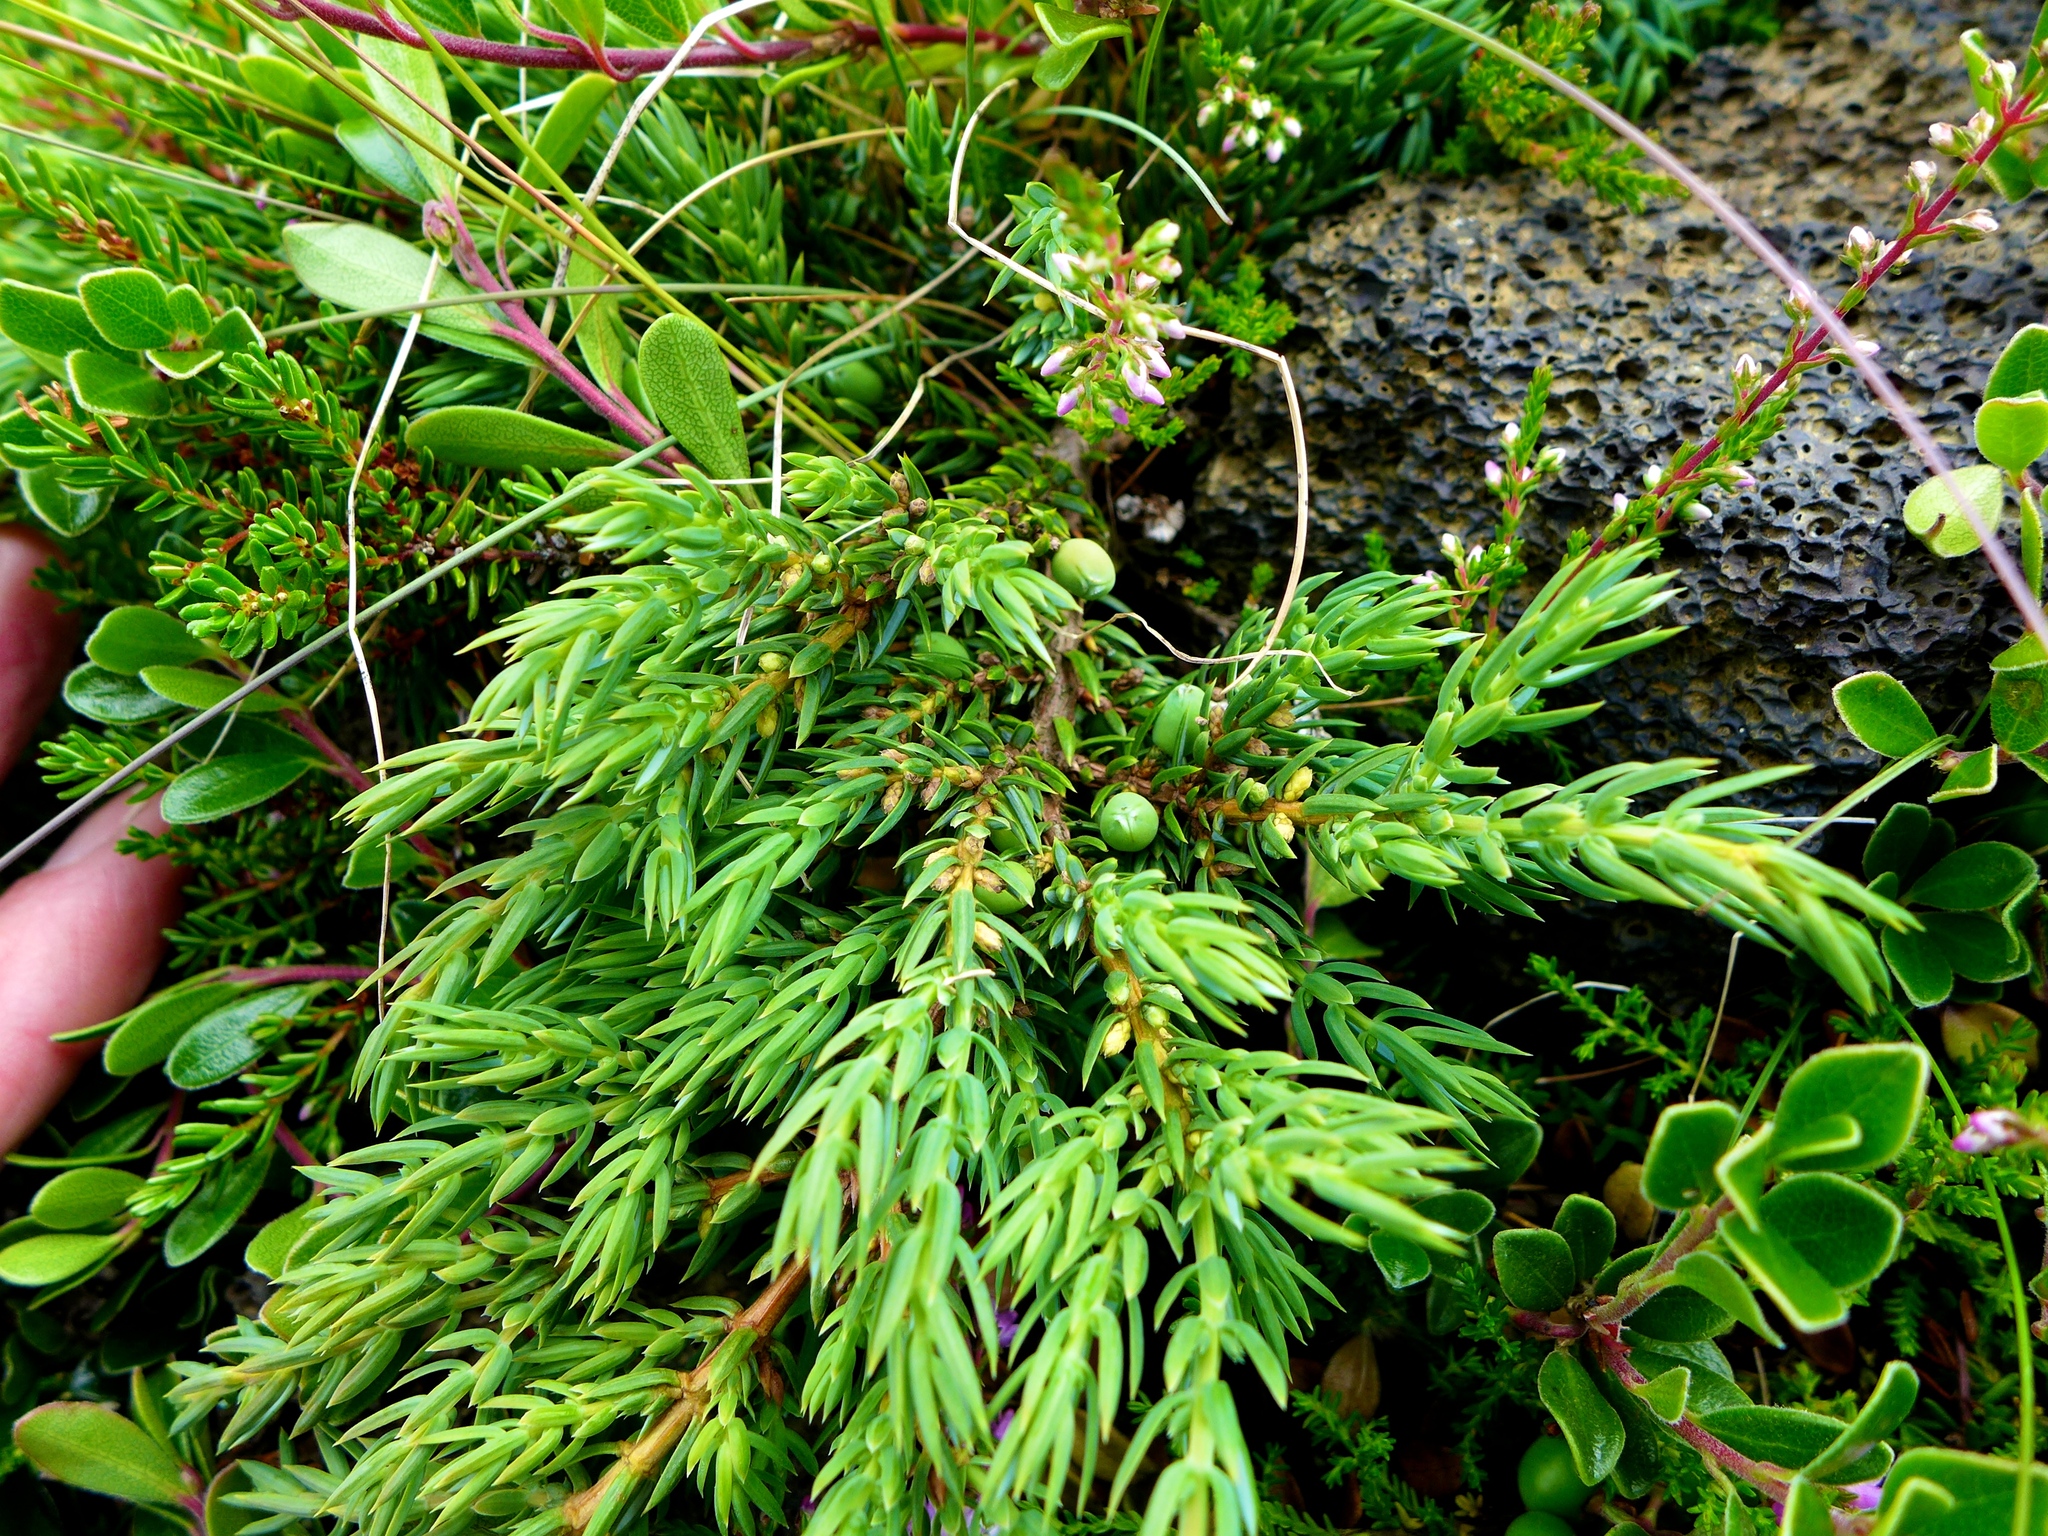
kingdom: Plantae
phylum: Tracheophyta
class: Pinopsida
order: Pinales
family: Cupressaceae
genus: Juniperus
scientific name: Juniperus communis
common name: Common juniper
